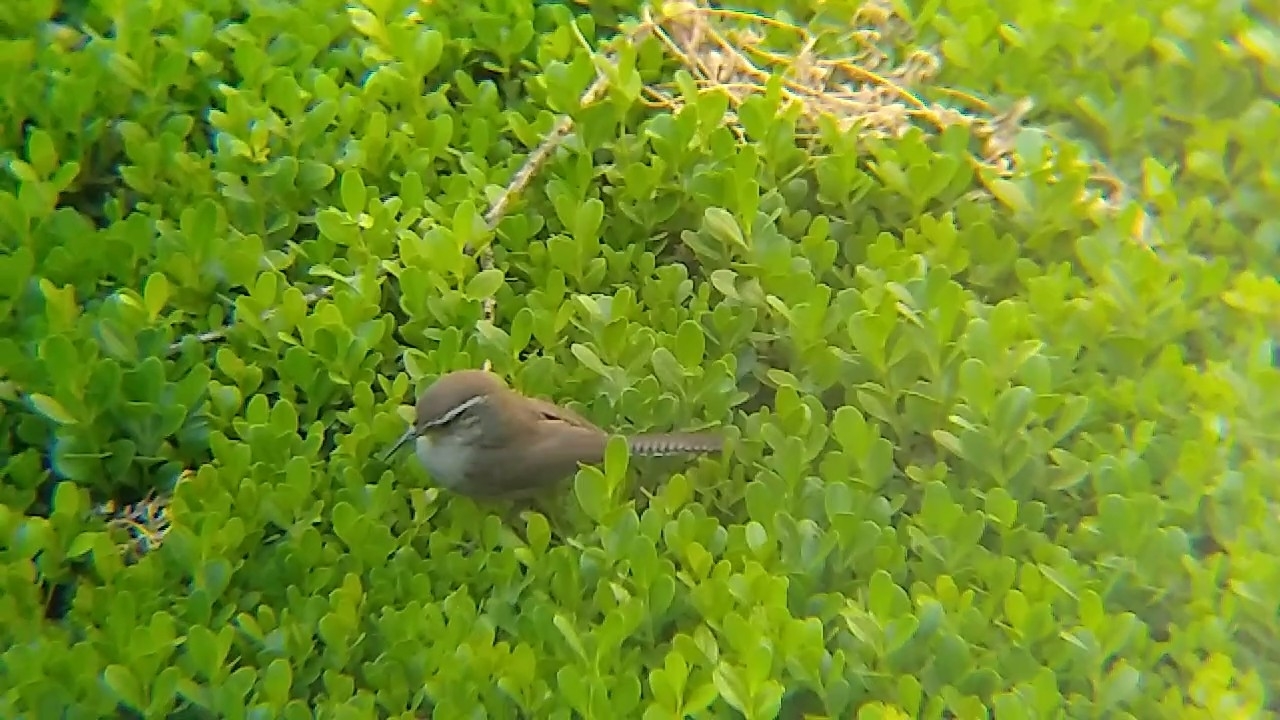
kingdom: Animalia
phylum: Chordata
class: Aves
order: Passeriformes
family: Troglodytidae
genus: Thryomanes
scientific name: Thryomanes bewickii
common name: Bewick's wren
